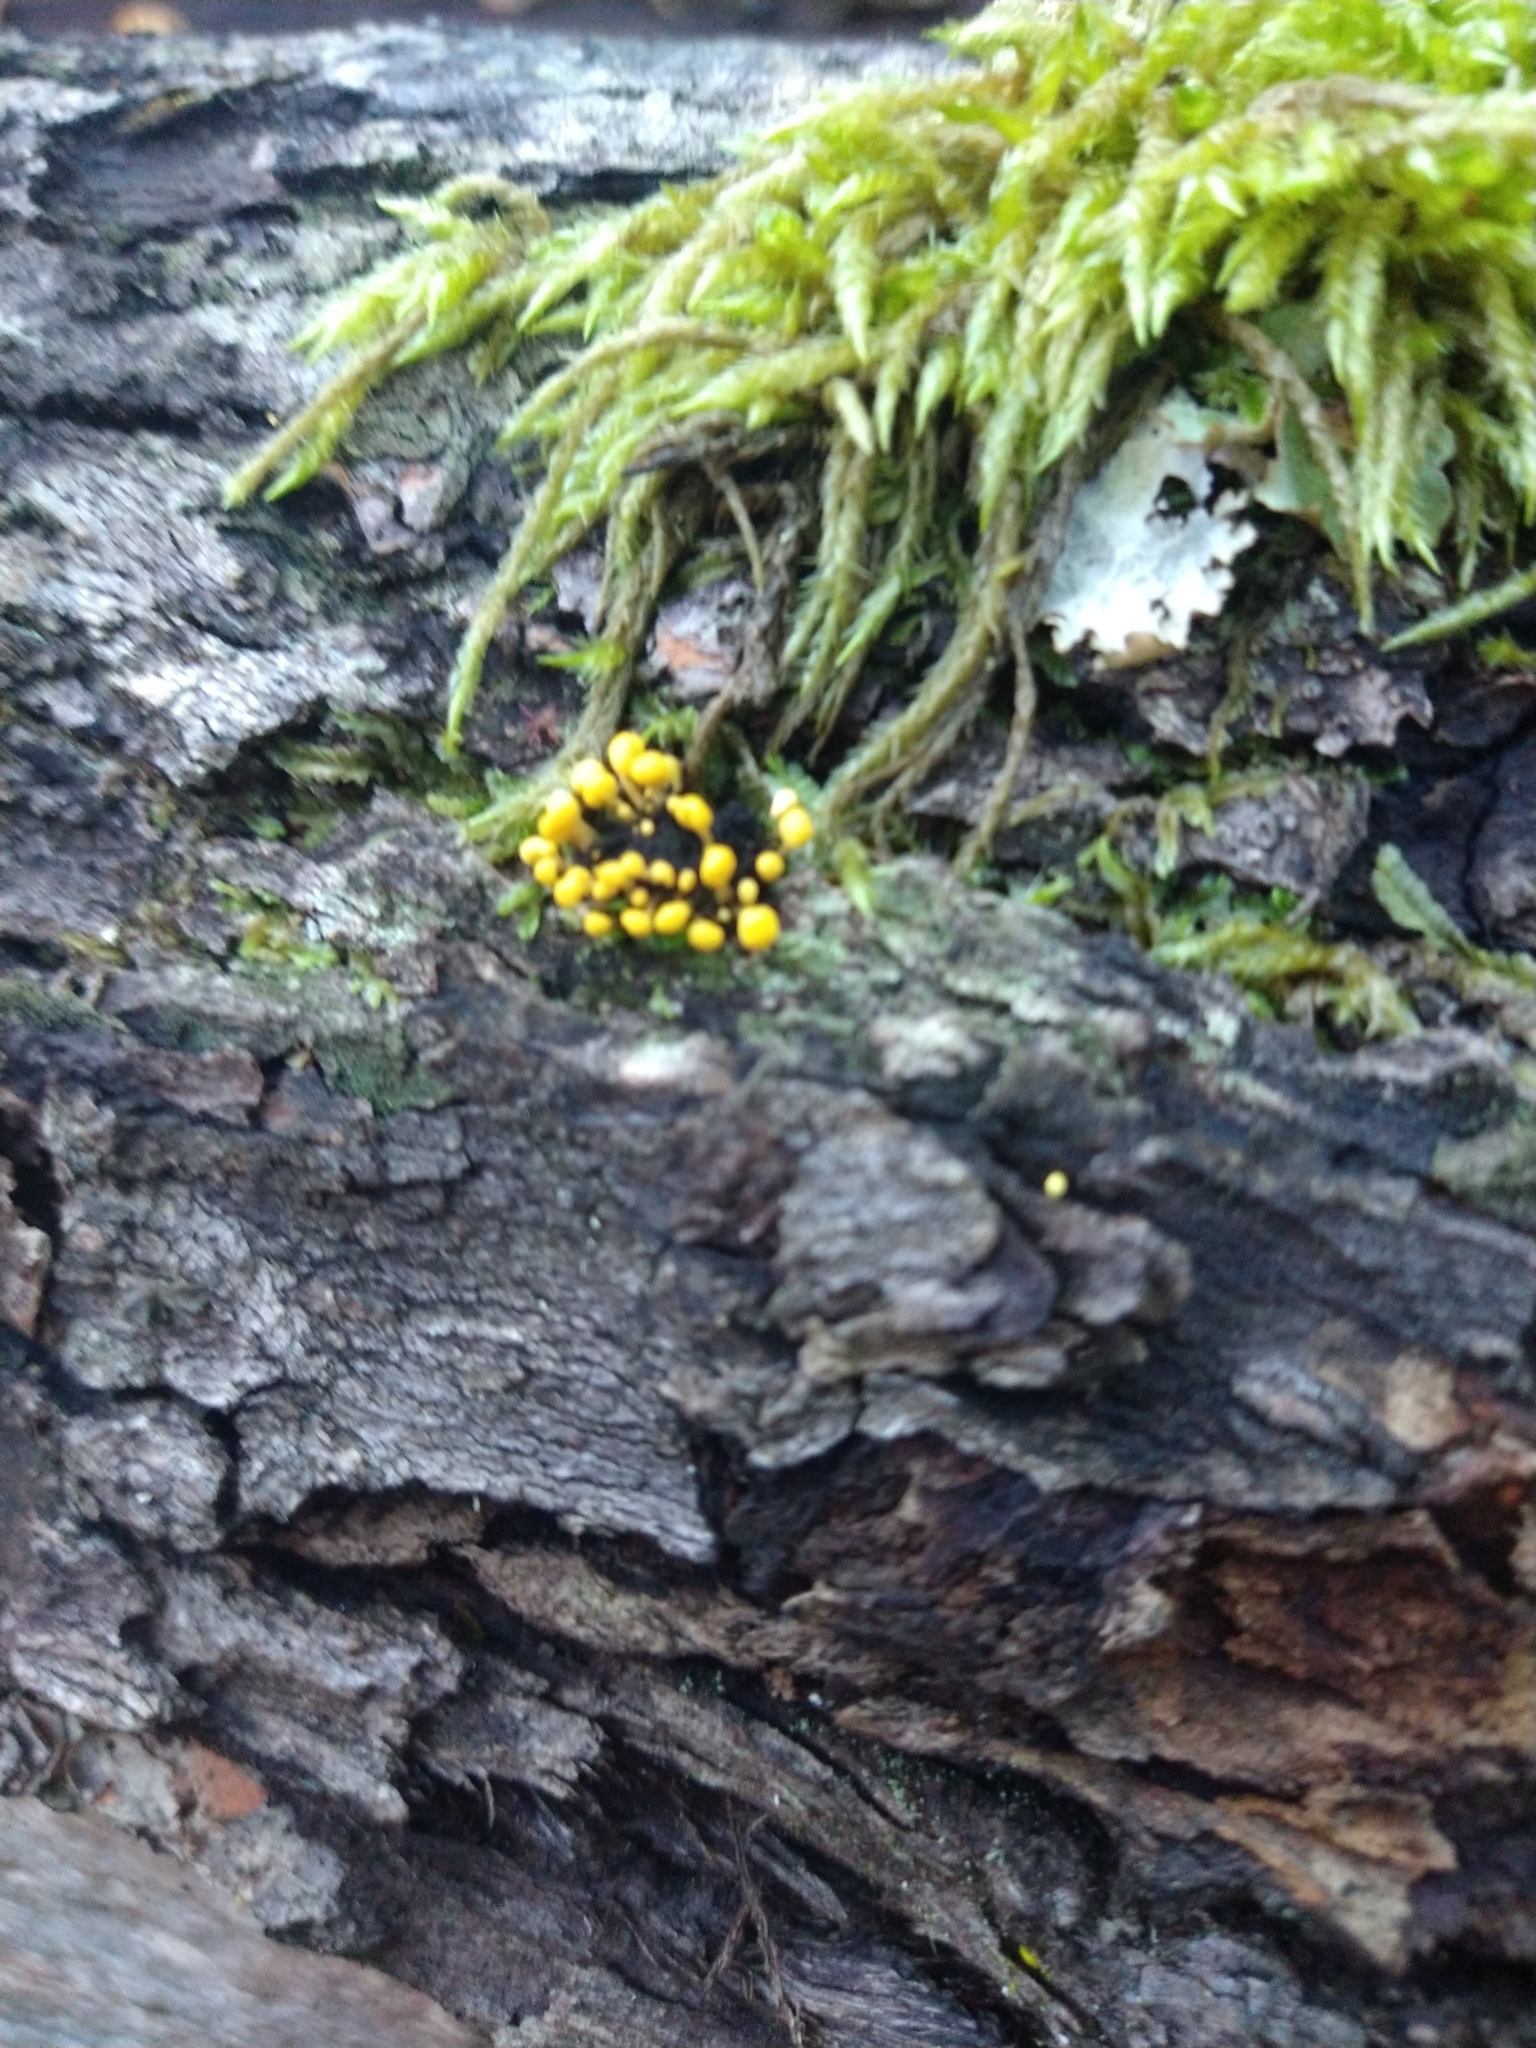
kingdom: Fungi
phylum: Ascomycota
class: Leotiomycetes
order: Helotiales
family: Pezizellaceae
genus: Calycina
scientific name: Calycina citrina
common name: Yellow fairy cups
